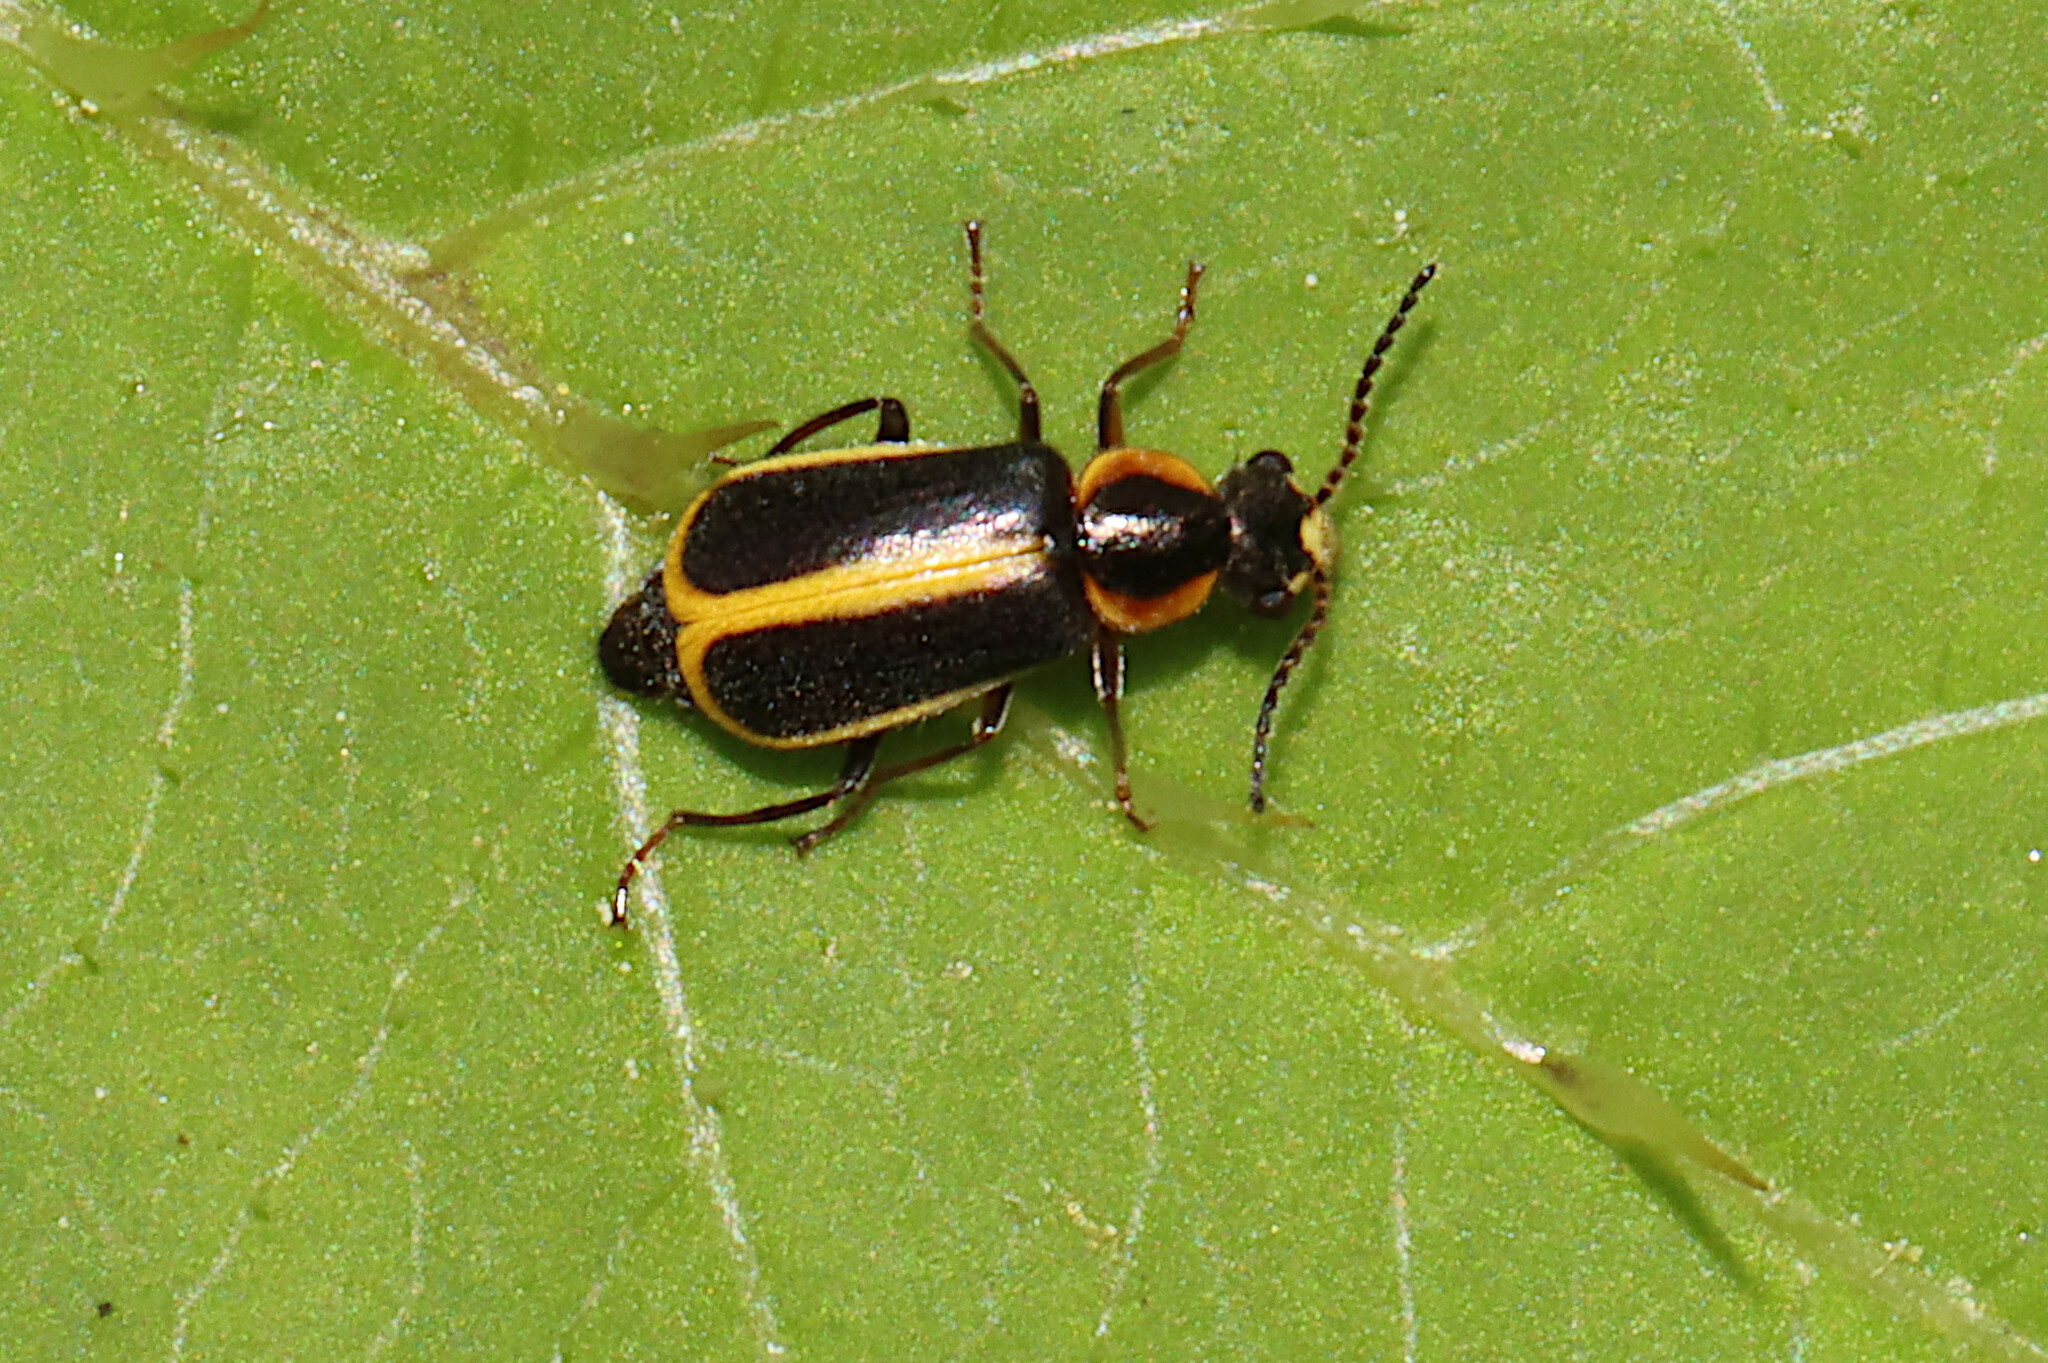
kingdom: Animalia
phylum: Arthropoda
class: Insecta
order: Coleoptera
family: Malachiidae
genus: Attalus
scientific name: Attalus
